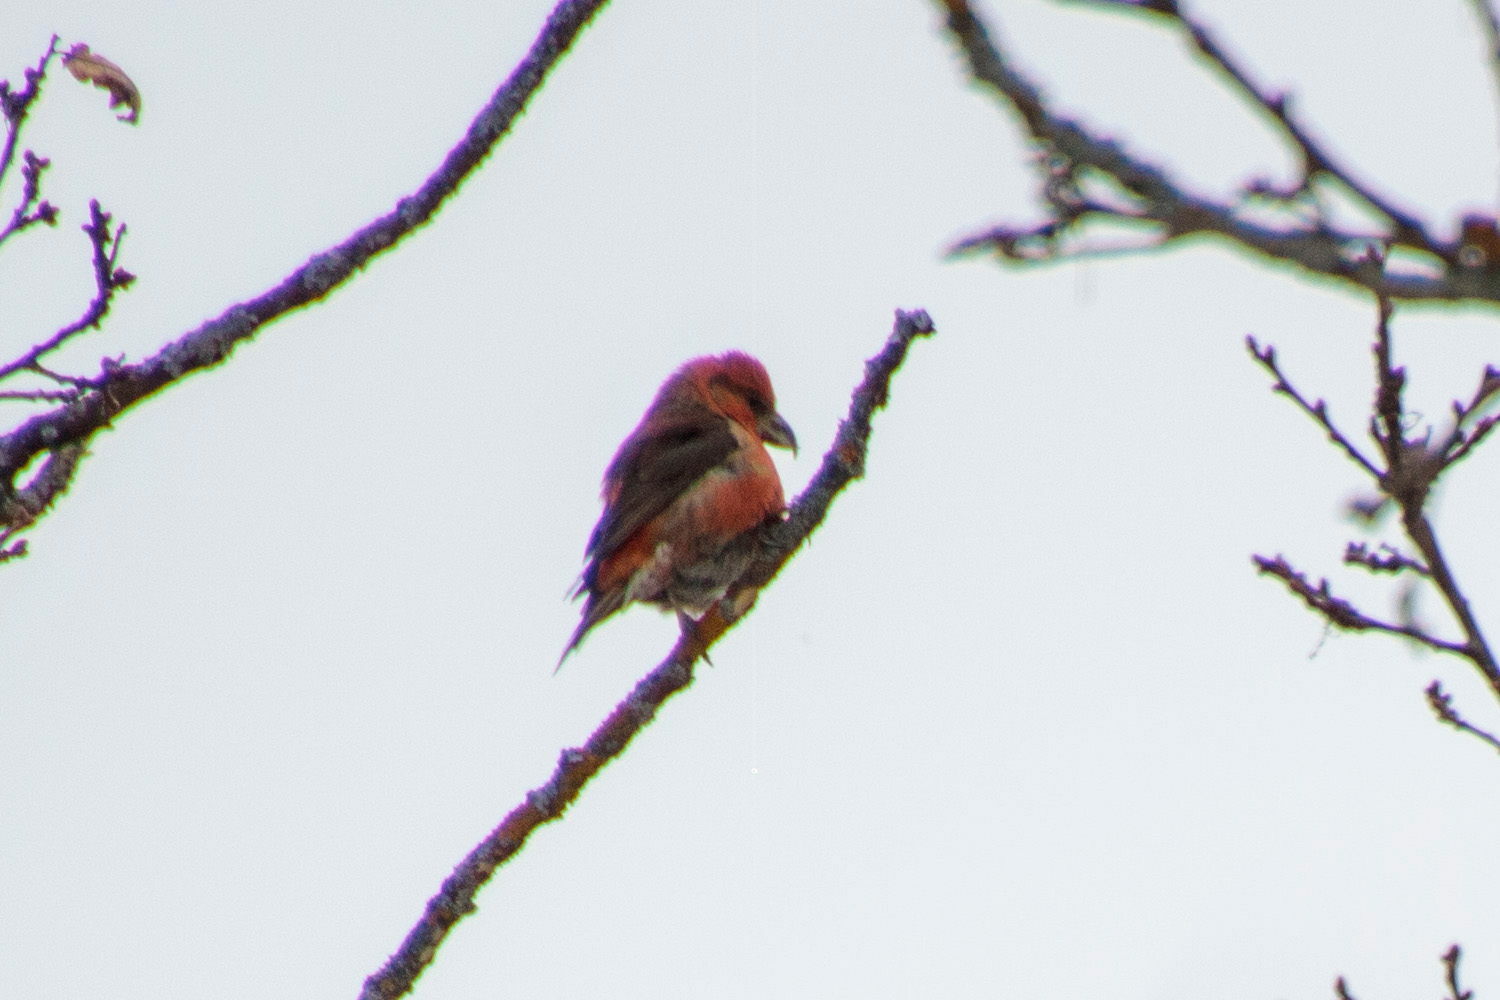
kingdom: Animalia
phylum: Chordata
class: Aves
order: Passeriformes
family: Fringillidae
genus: Loxia
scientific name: Loxia curvirostra
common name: Red crossbill
